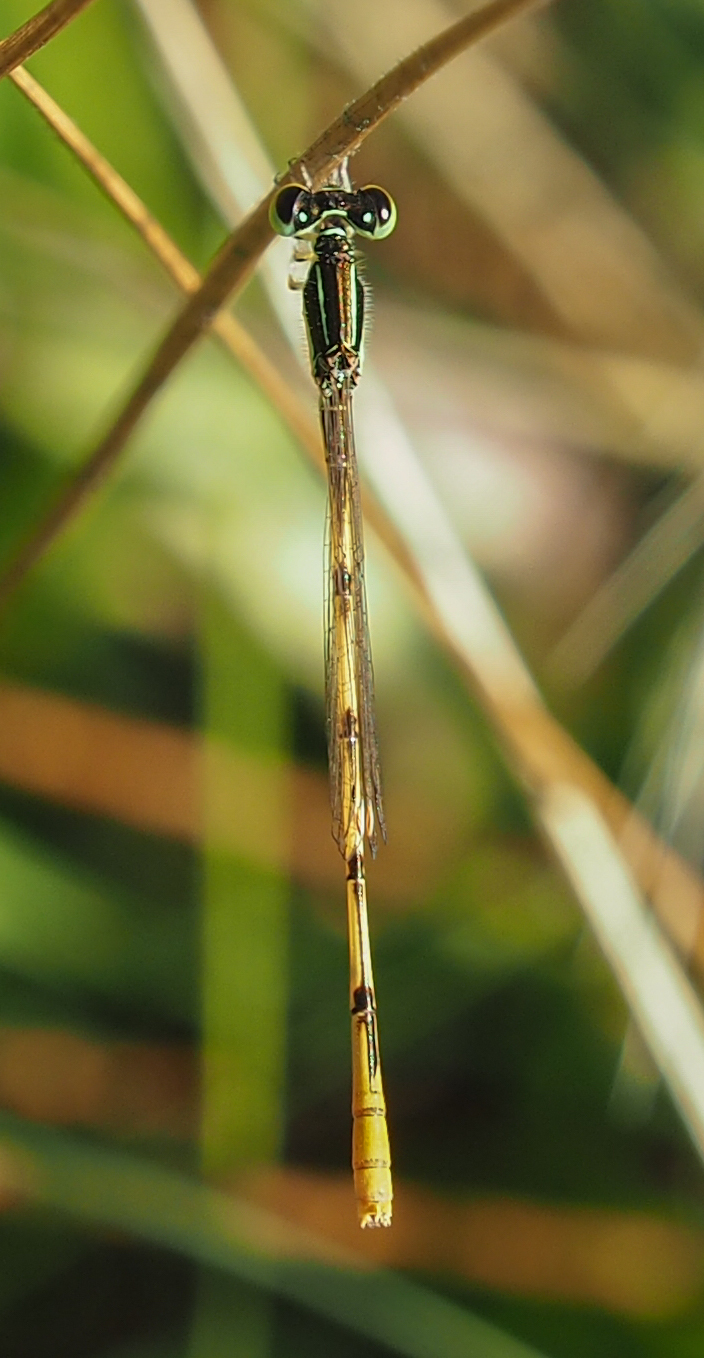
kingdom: Animalia
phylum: Arthropoda
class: Insecta
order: Odonata
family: Coenagrionidae
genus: Ischnura
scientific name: Ischnura hastata
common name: Citrine forktail
